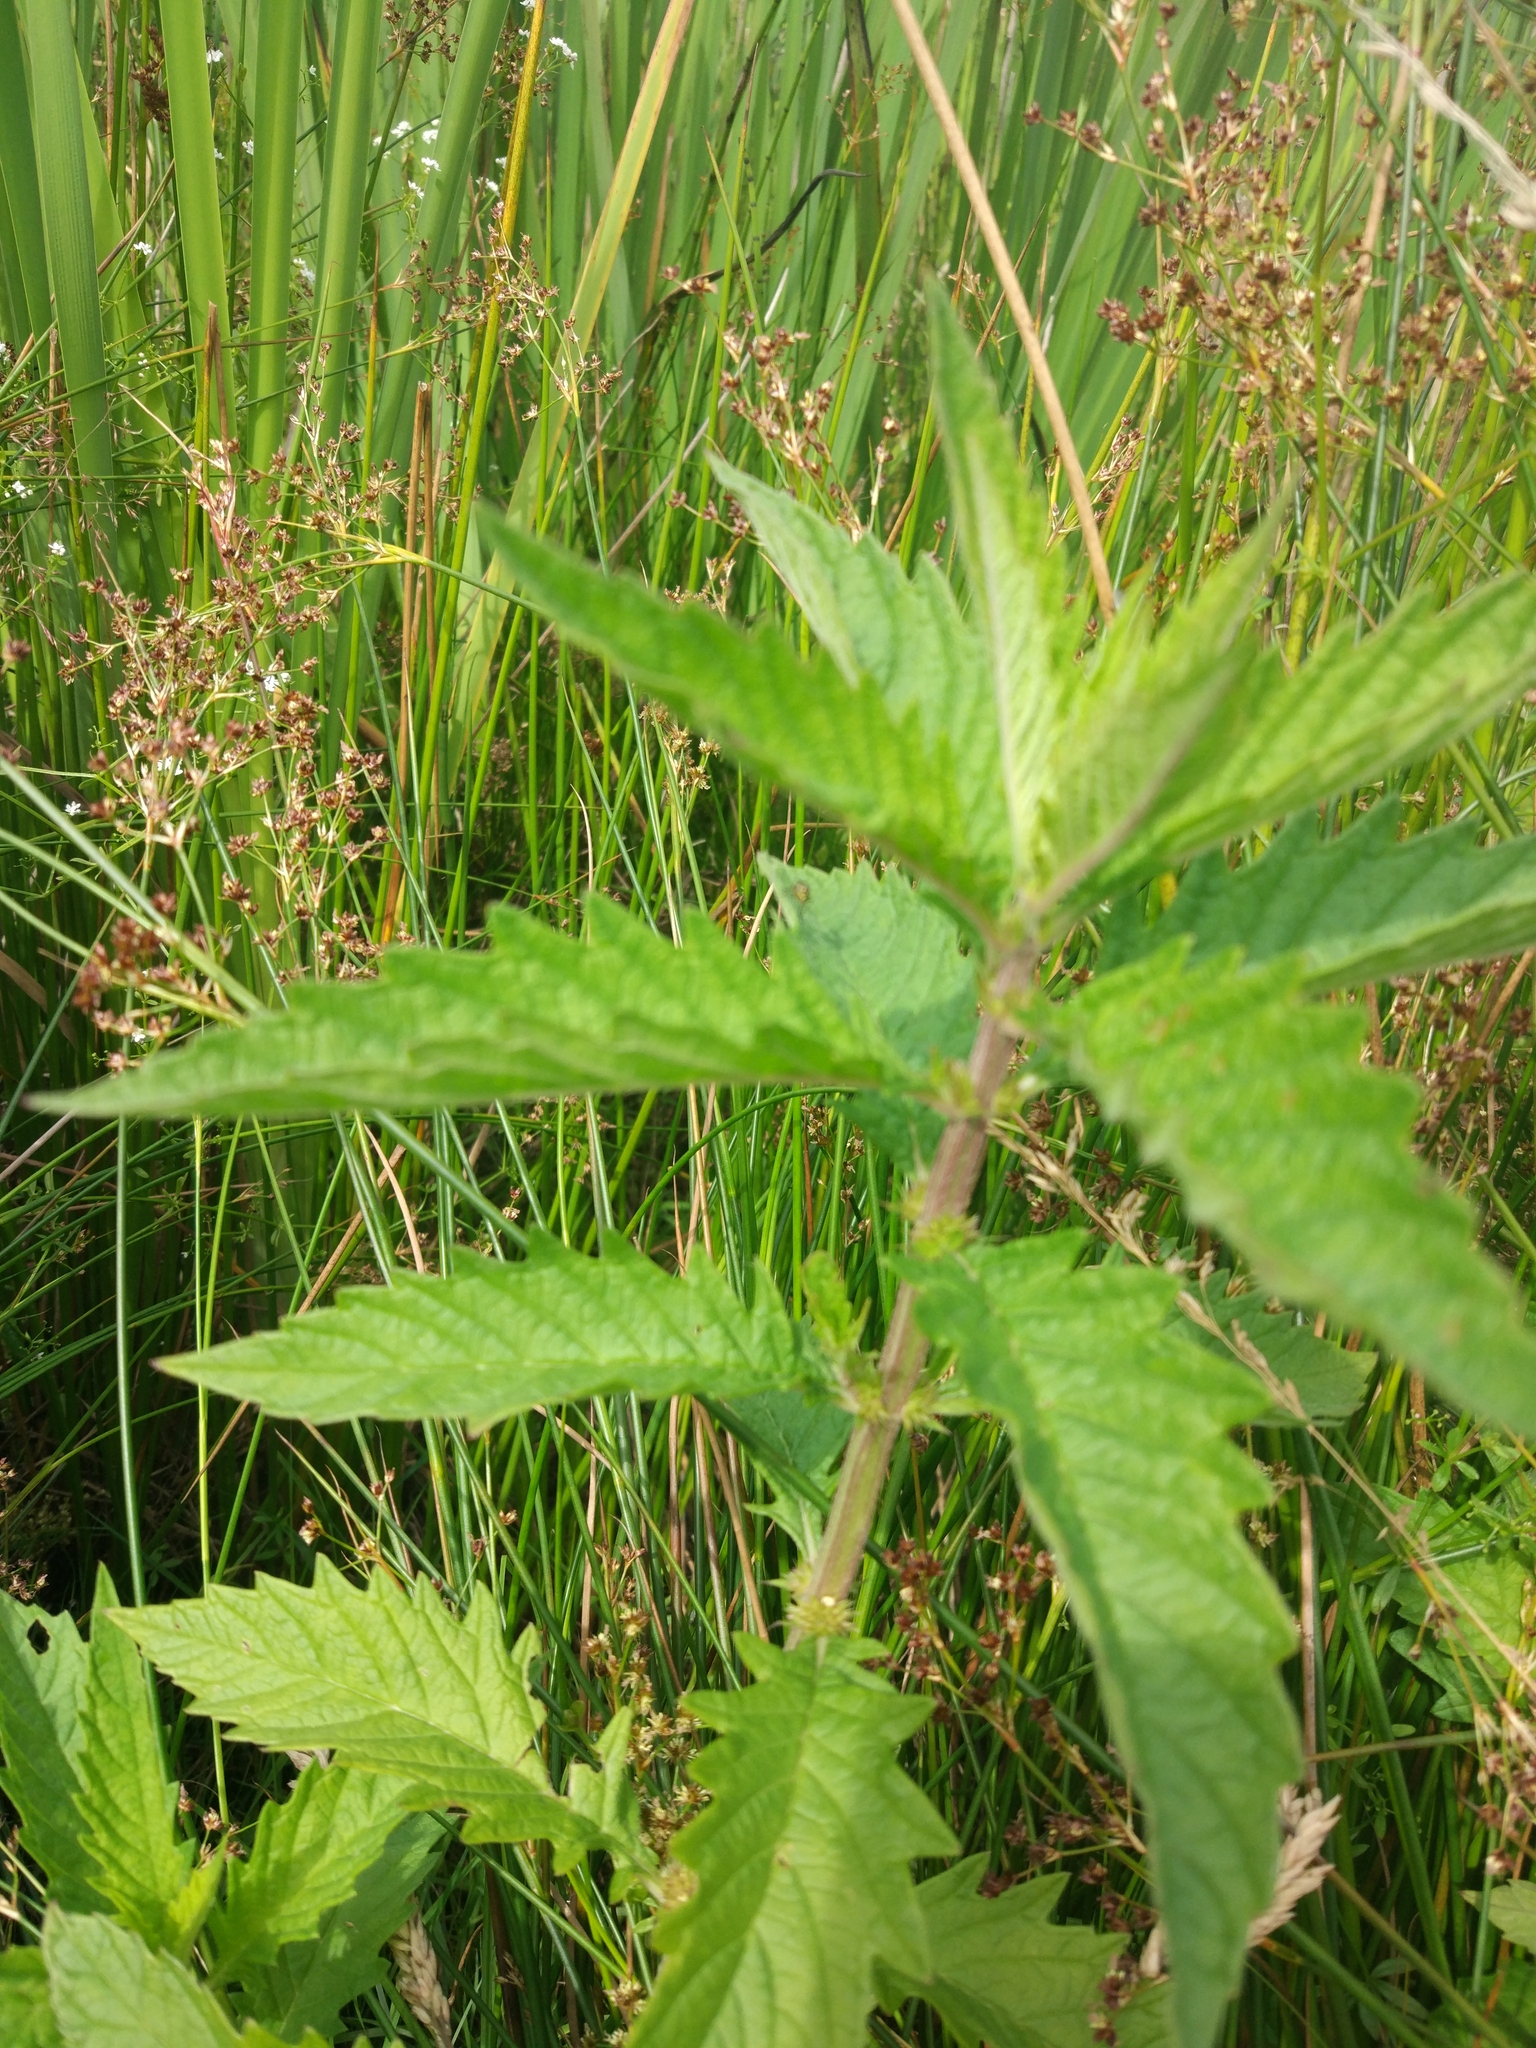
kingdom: Plantae
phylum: Tracheophyta
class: Magnoliopsida
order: Lamiales
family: Lamiaceae
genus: Lycopus
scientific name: Lycopus europaeus
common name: European bugleweed
